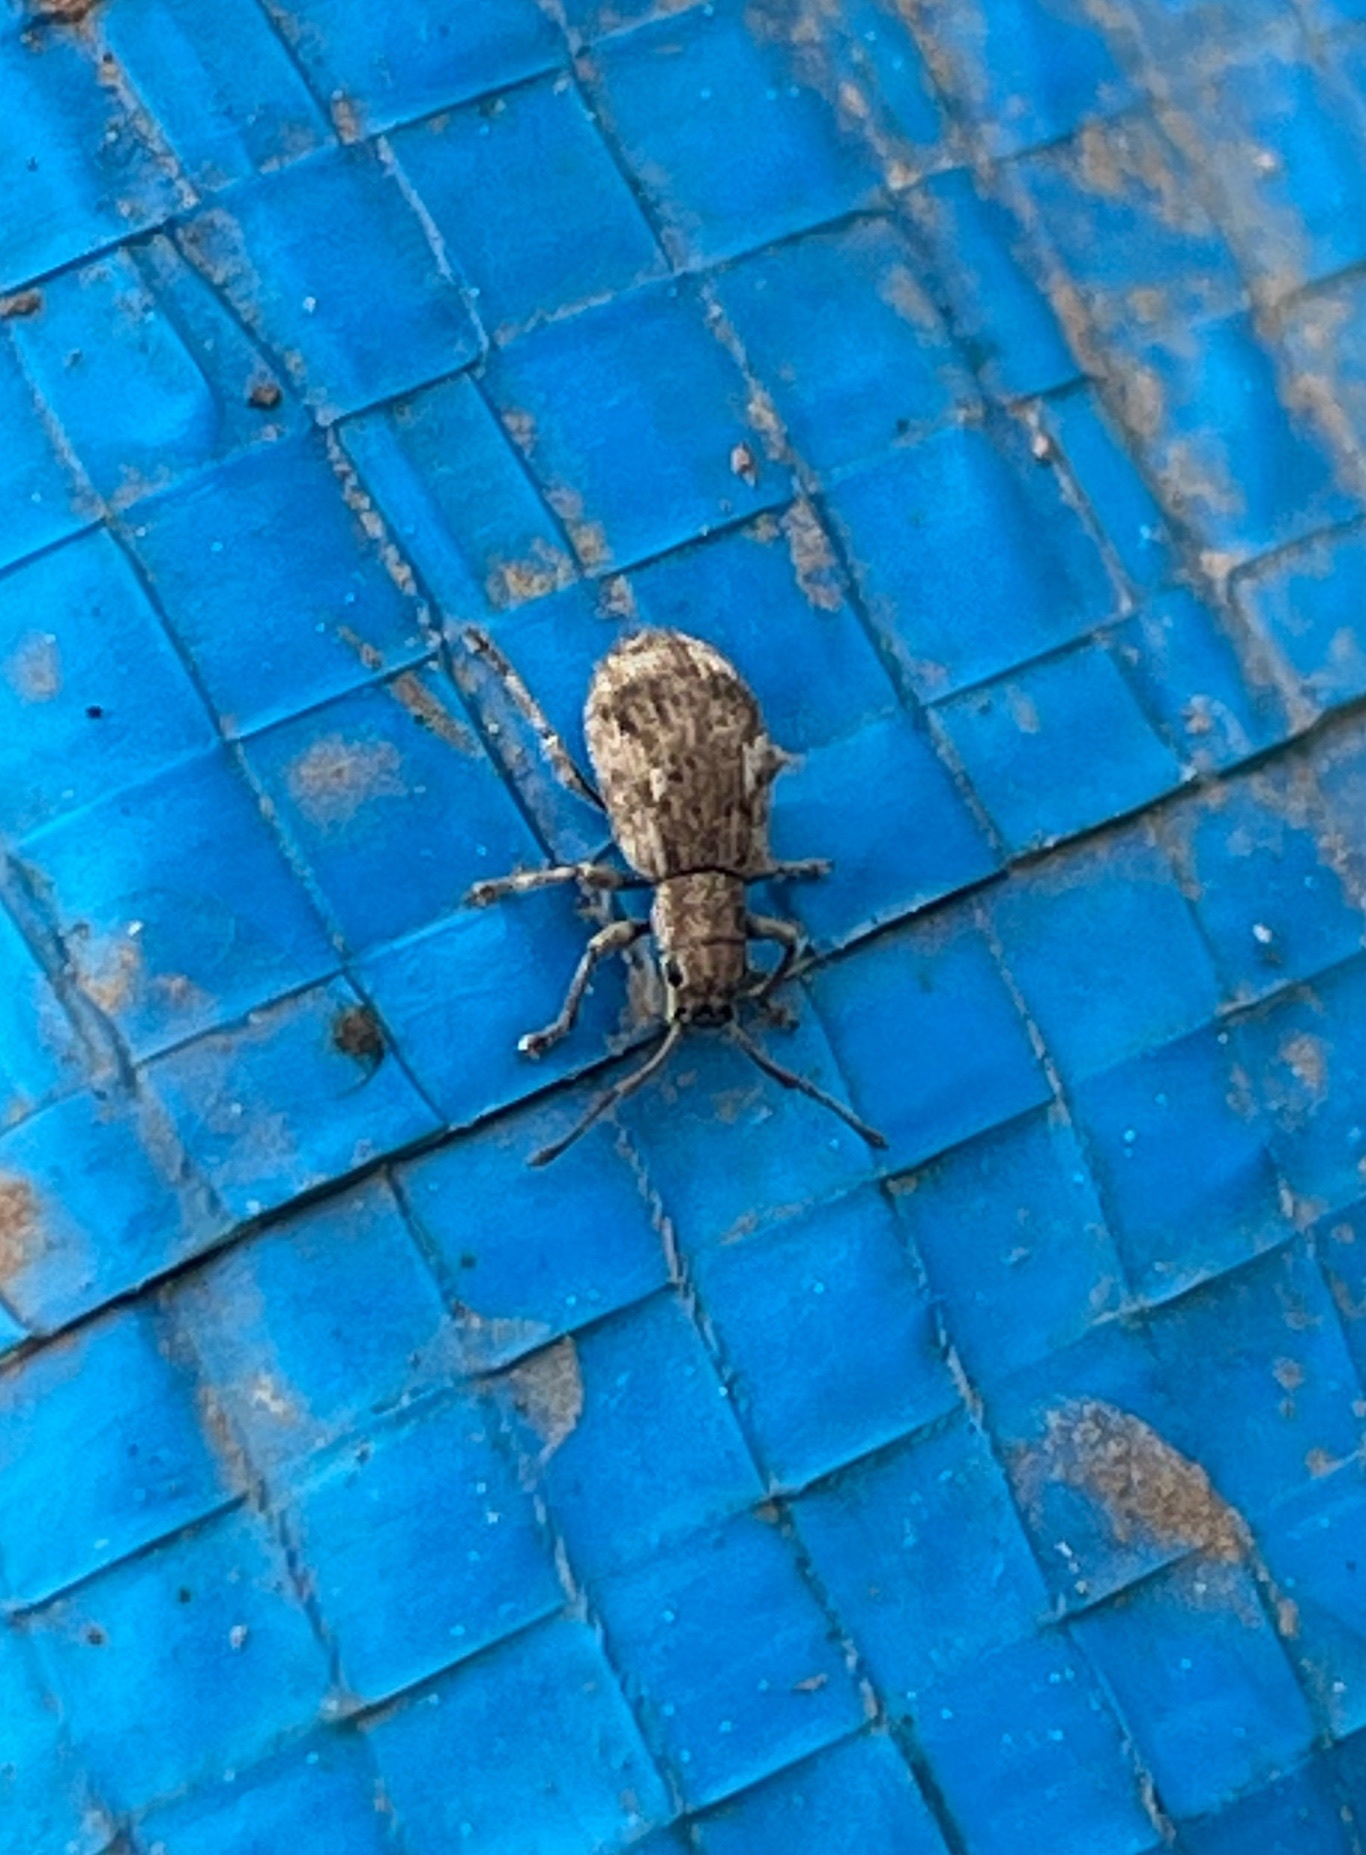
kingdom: Animalia
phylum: Arthropoda
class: Insecta
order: Coleoptera
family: Curculionidae
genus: Pseudoedophrys
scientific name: Pseudoedophrys hilleri
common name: Weevil
